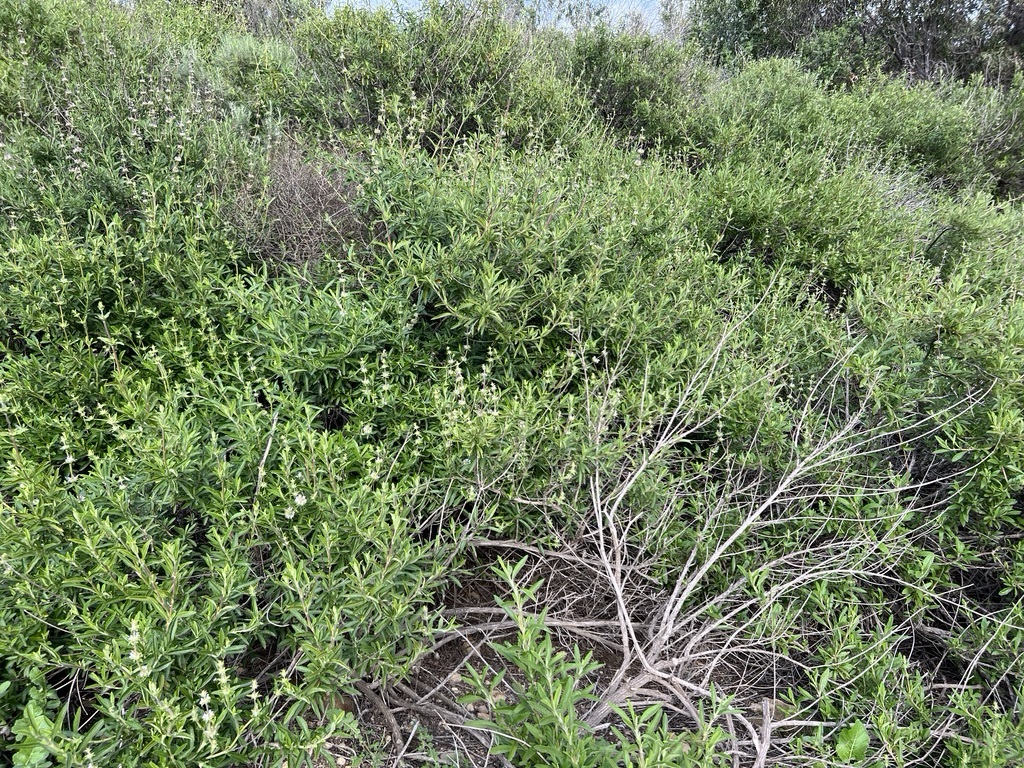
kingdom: Plantae
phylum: Tracheophyta
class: Magnoliopsida
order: Lamiales
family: Lamiaceae
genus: Salvia
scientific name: Salvia mellifera
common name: Black sage
